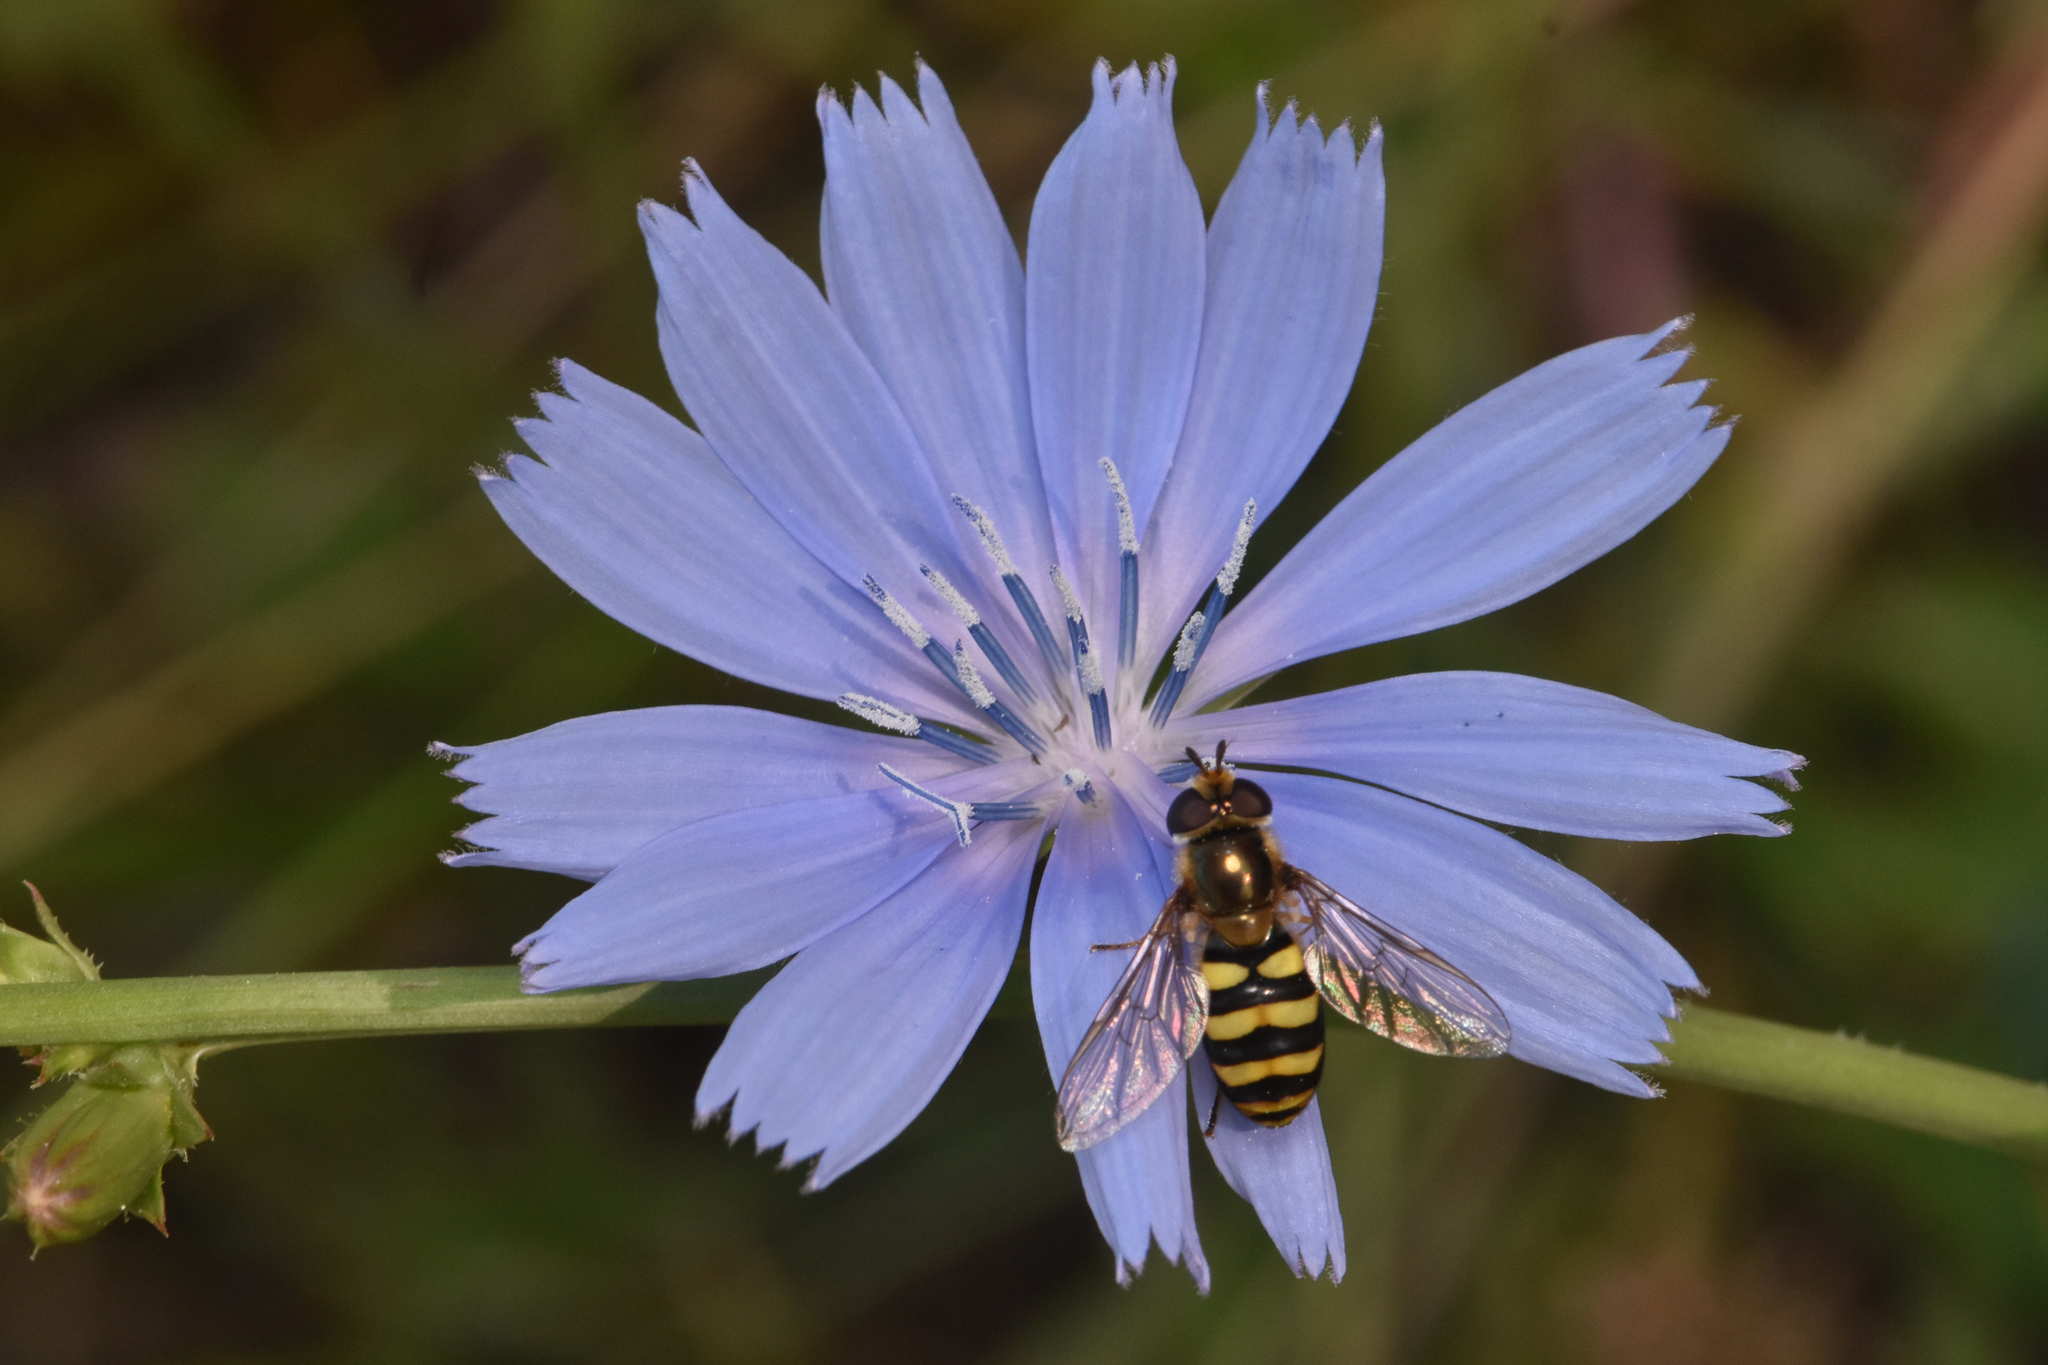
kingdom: Animalia
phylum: Arthropoda
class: Insecta
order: Diptera
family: Syrphidae
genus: Eupeodes
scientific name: Eupeodes fumipennis
